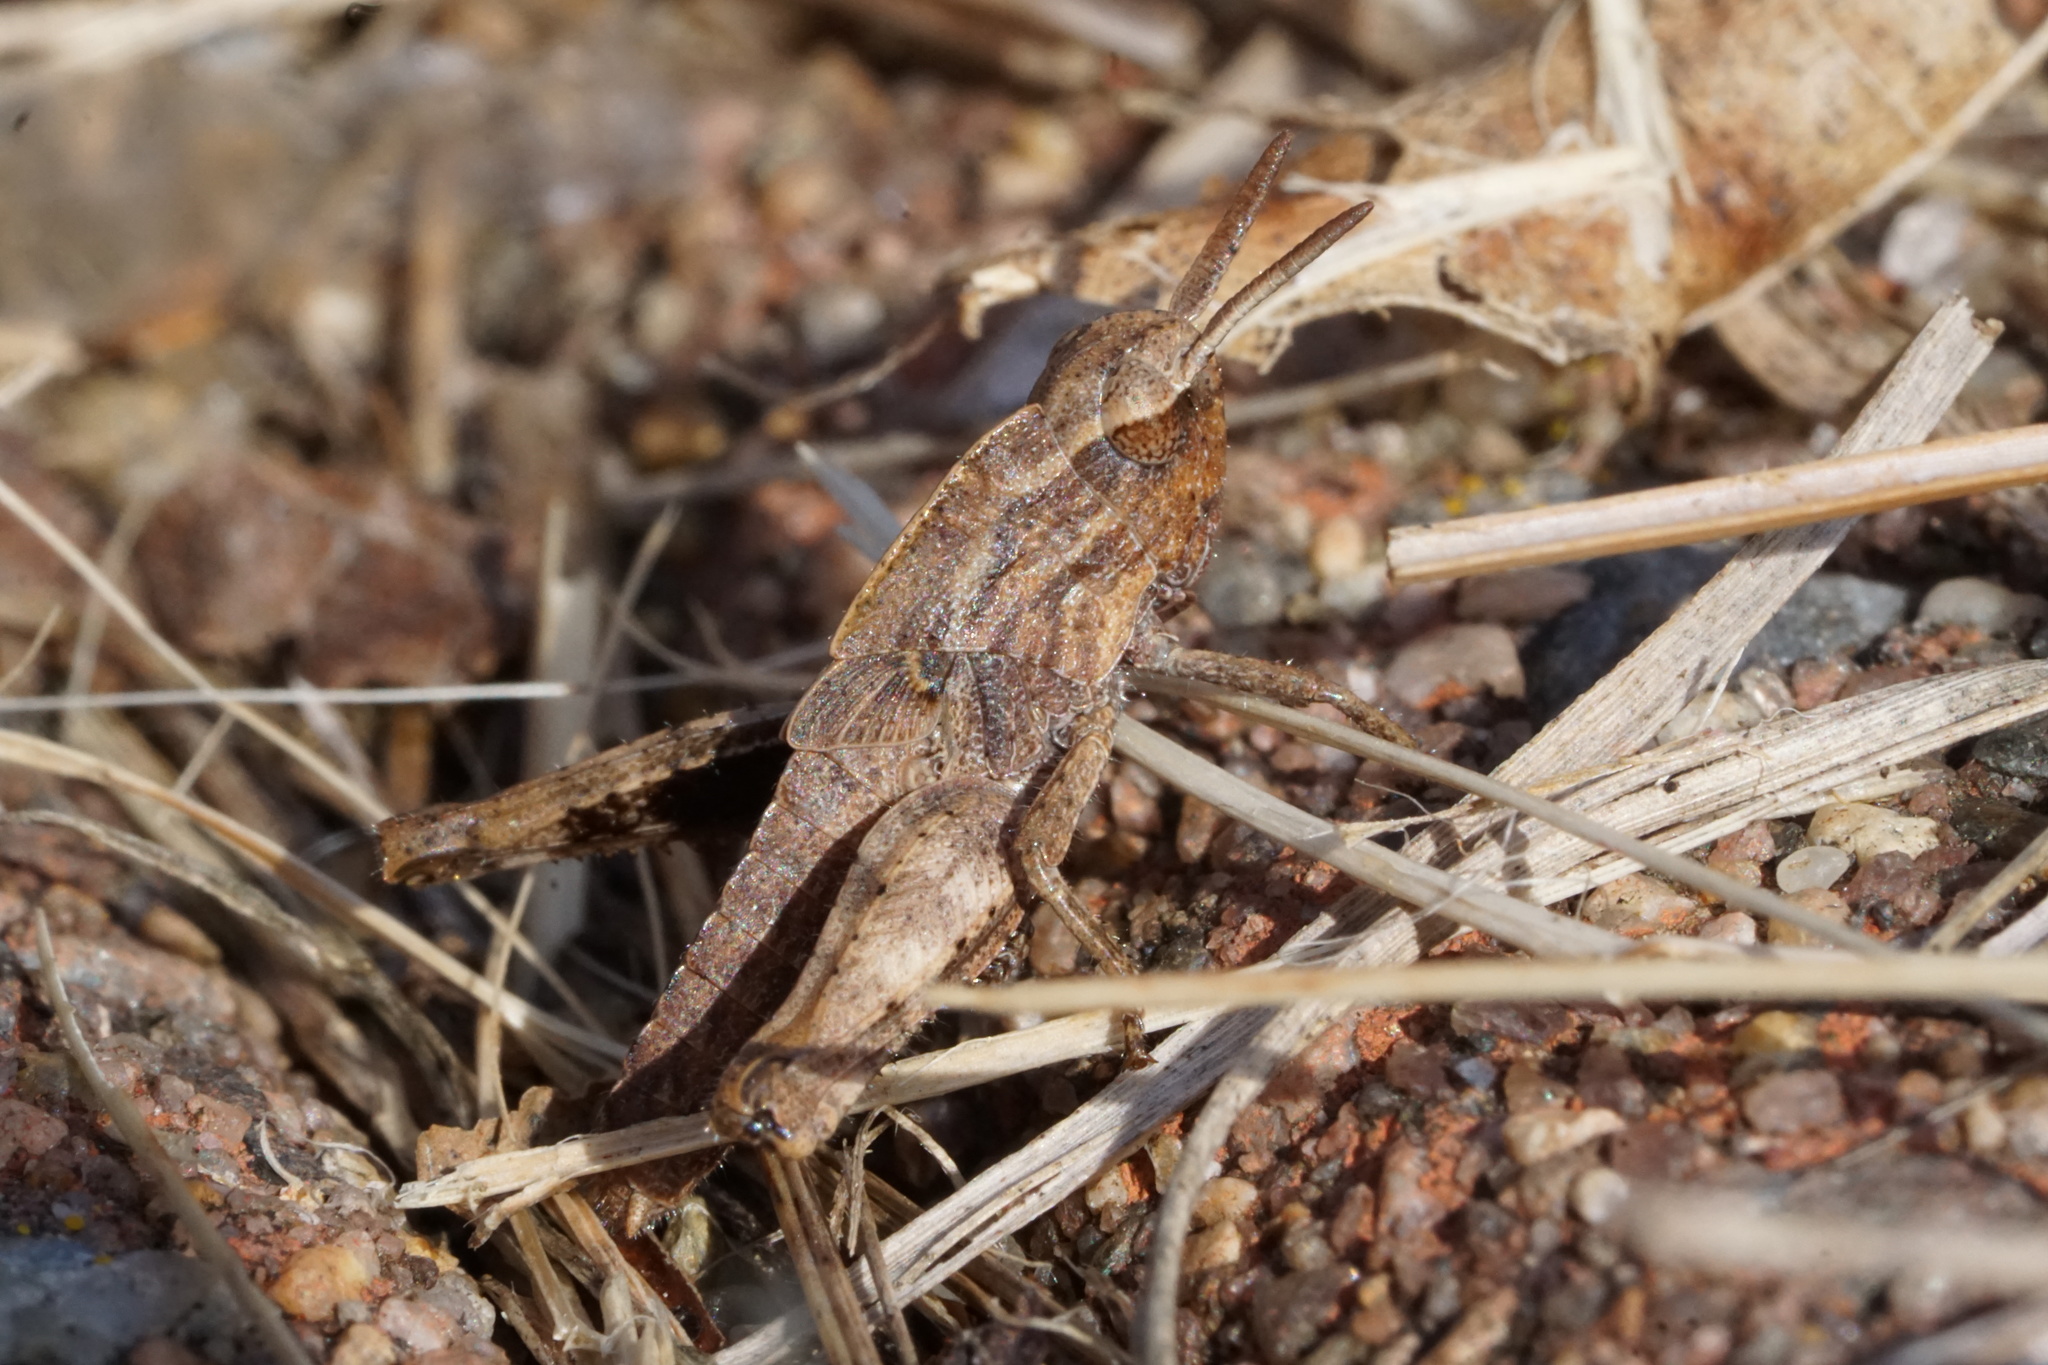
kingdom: Animalia
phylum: Arthropoda
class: Insecta
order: Orthoptera
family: Acrididae
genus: Chortophaga
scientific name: Chortophaga viridifasciata
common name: Green-striped grasshopper
